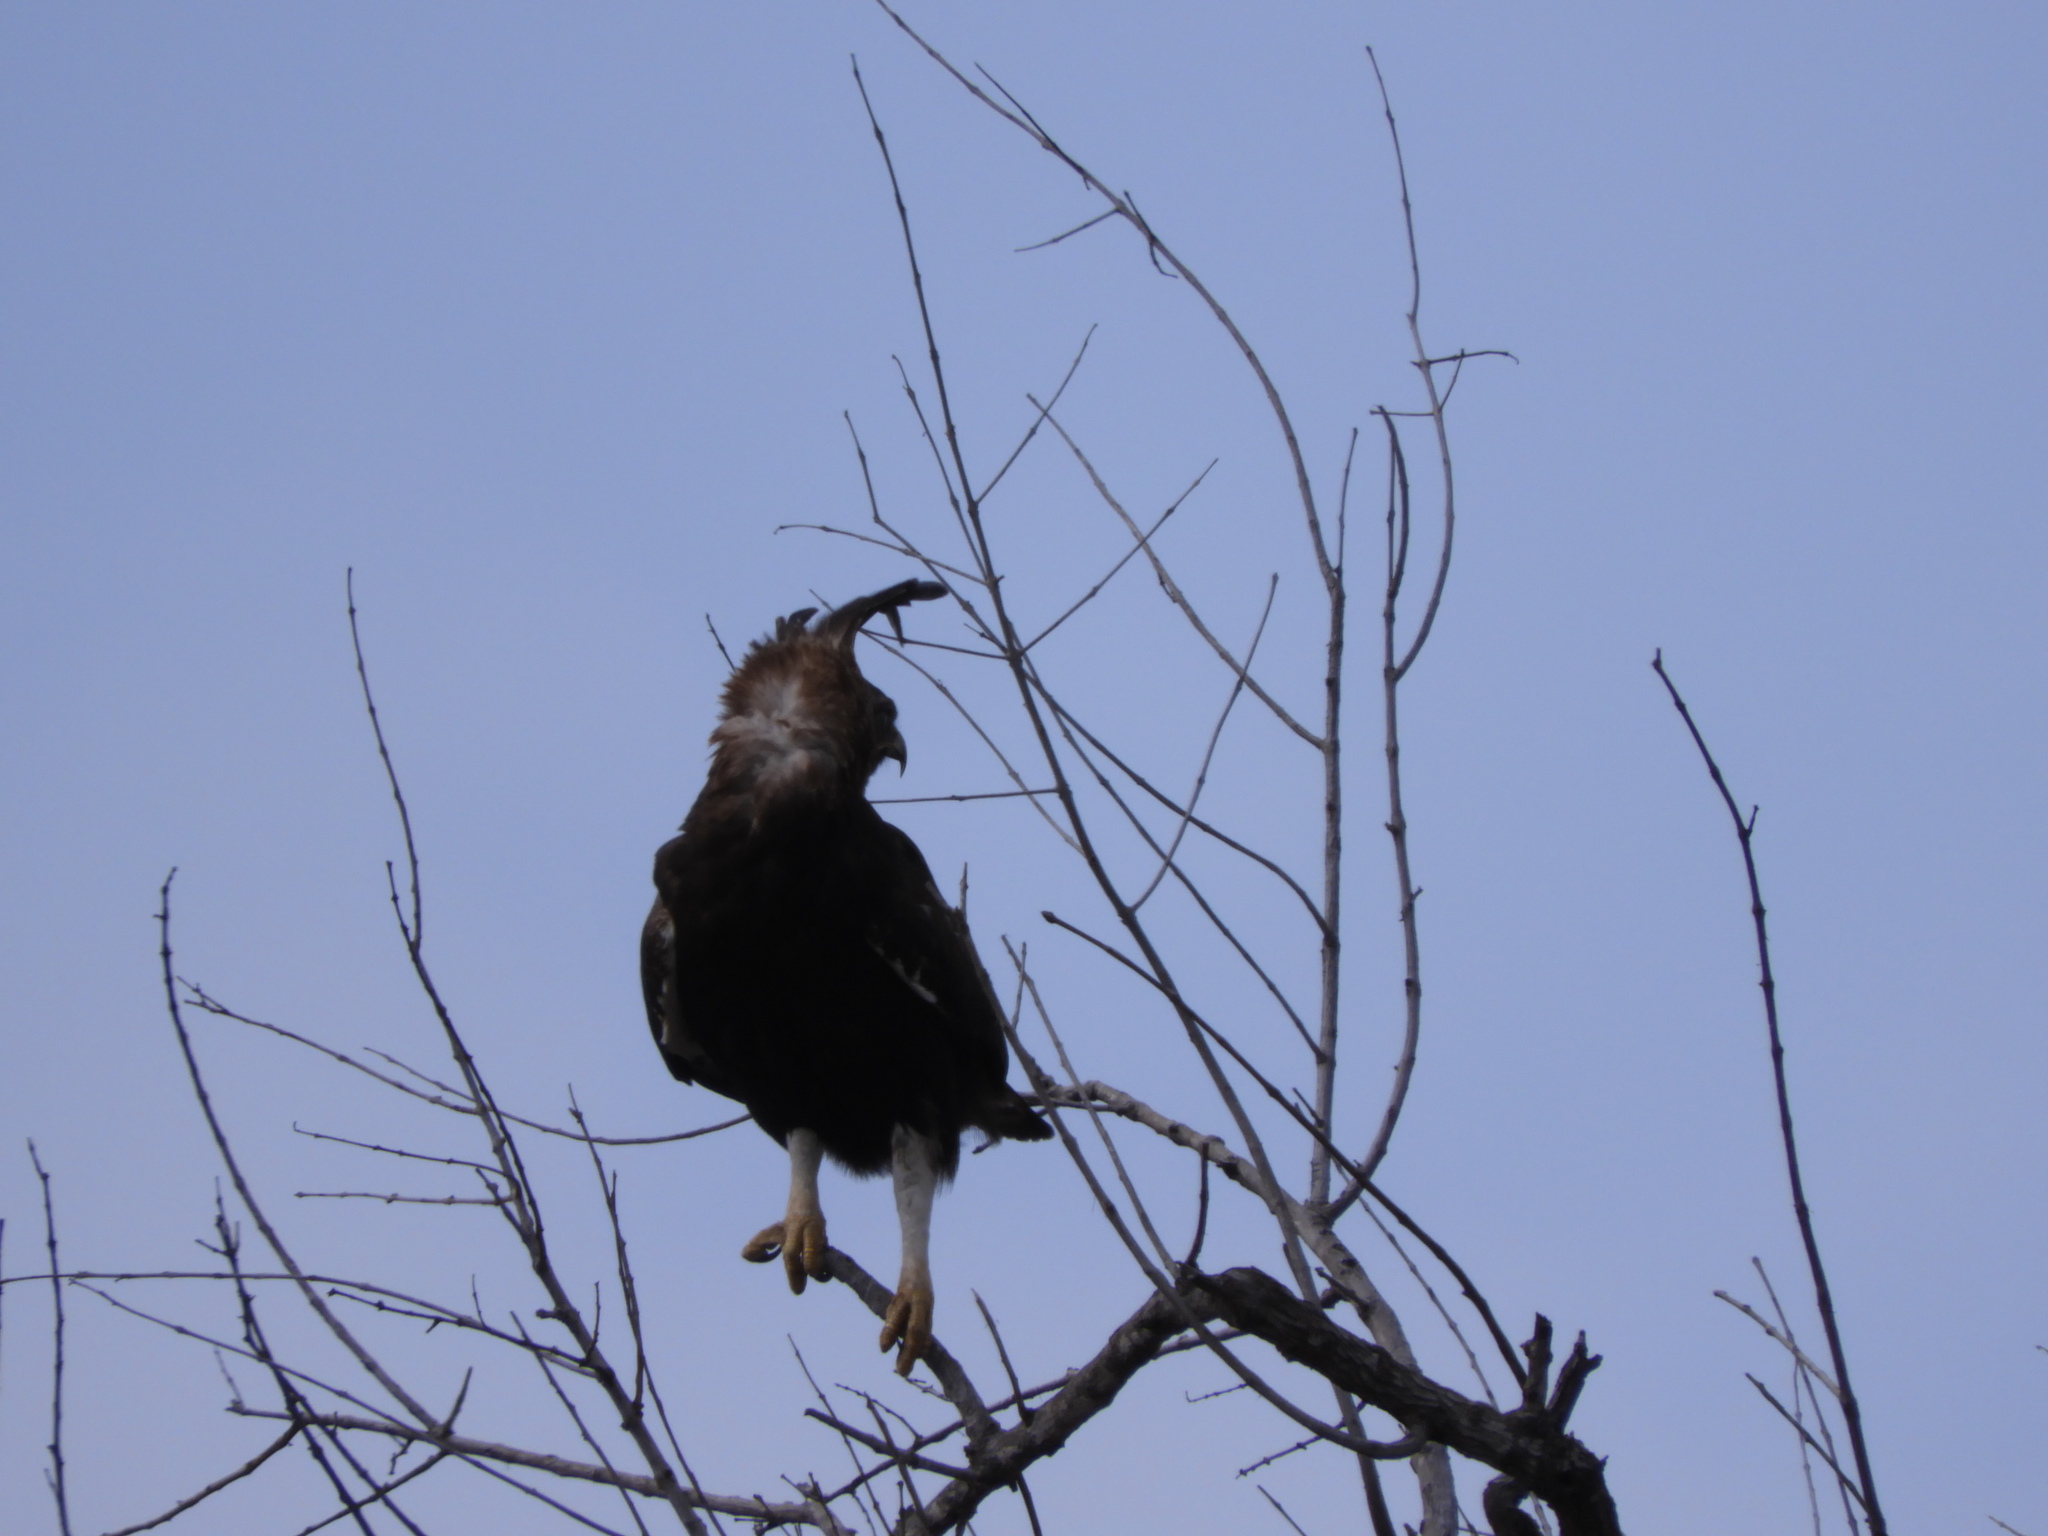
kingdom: Animalia
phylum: Chordata
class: Aves
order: Accipitriformes
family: Accipitridae
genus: Lophaetus
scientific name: Lophaetus occipitalis
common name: Long-crested eagle
